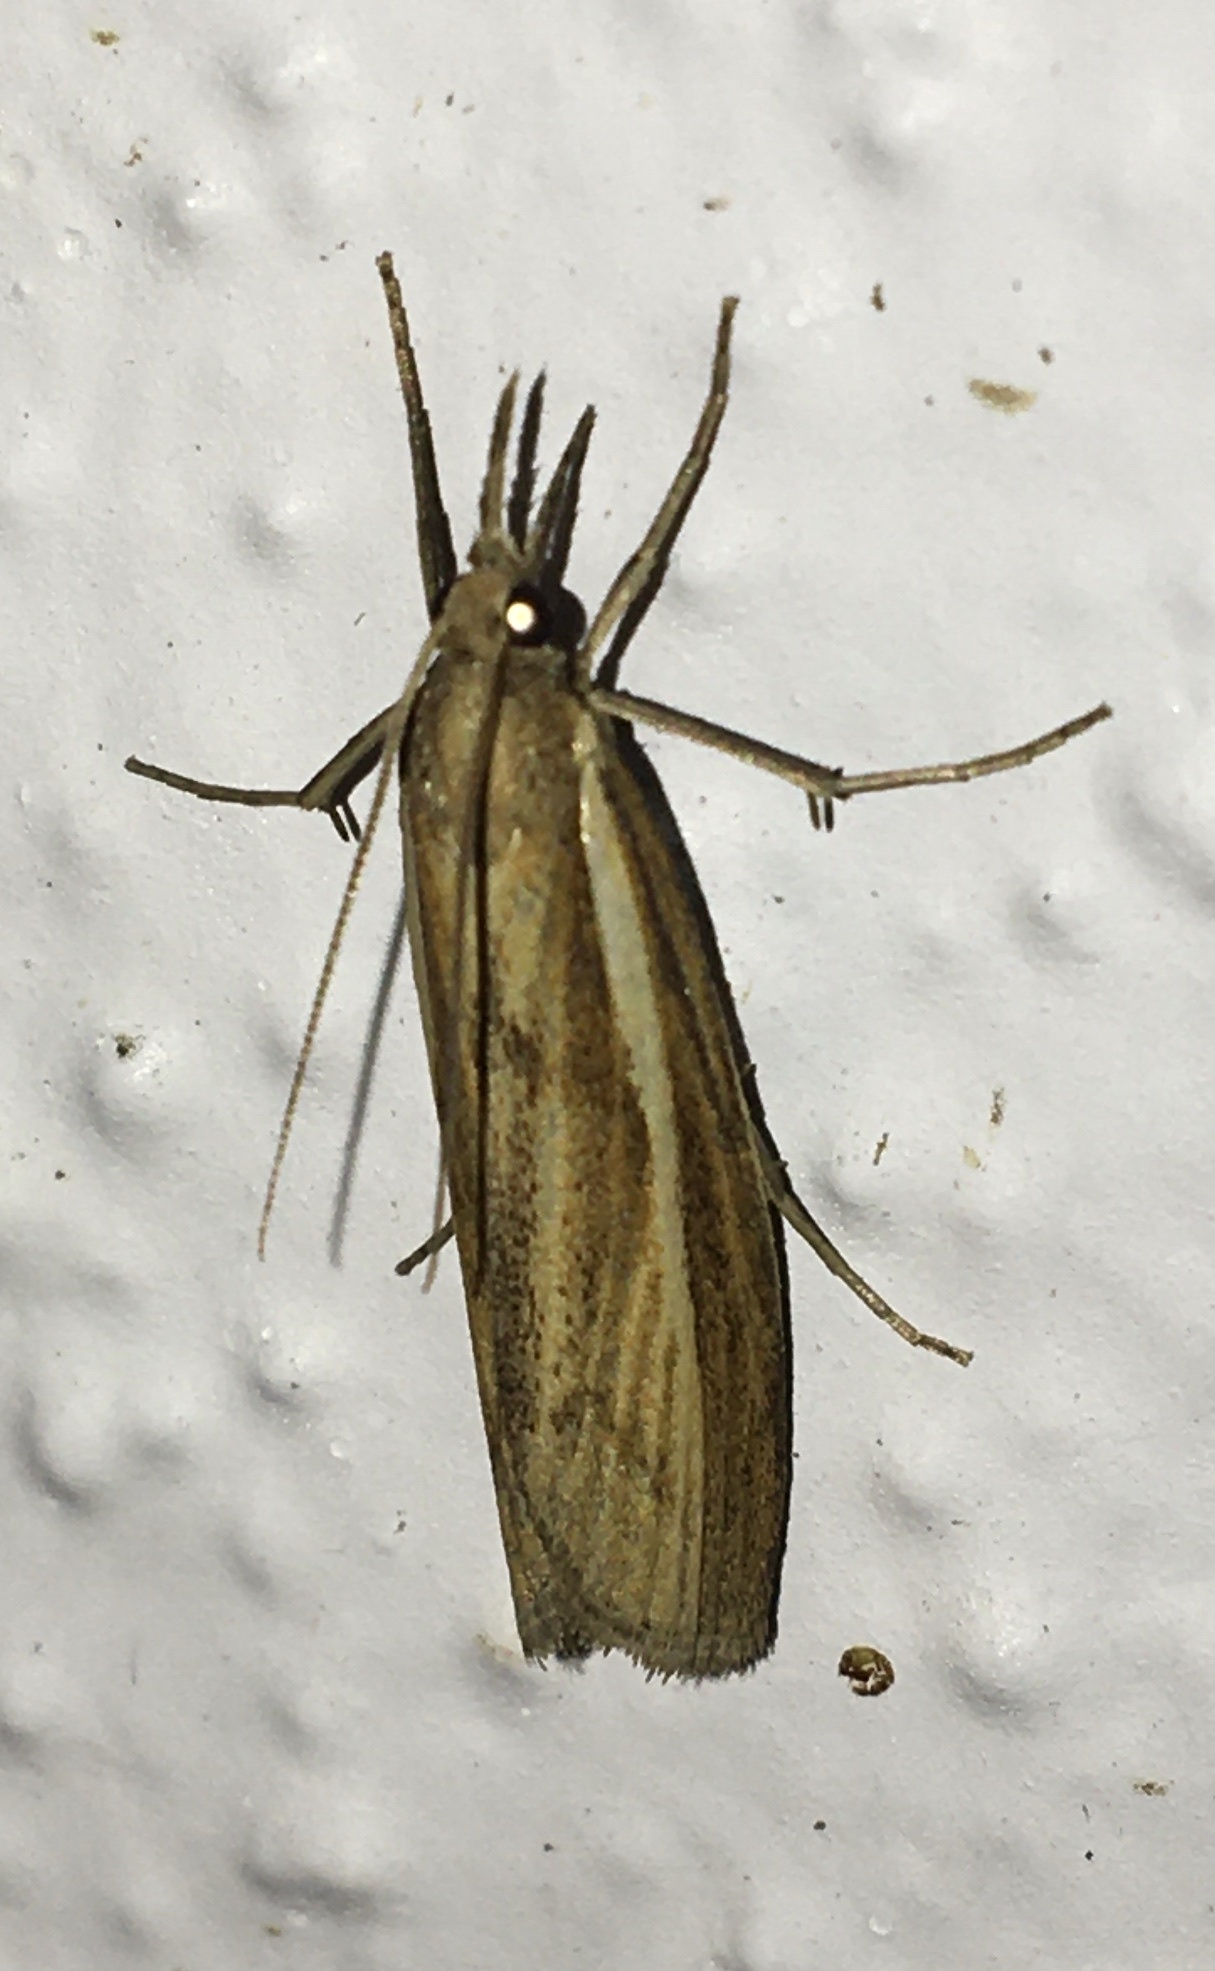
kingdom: Animalia
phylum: Arthropoda
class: Insecta
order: Lepidoptera
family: Crambidae
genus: Agriphila
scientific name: Agriphila tristellus
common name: Common grass-veneer
